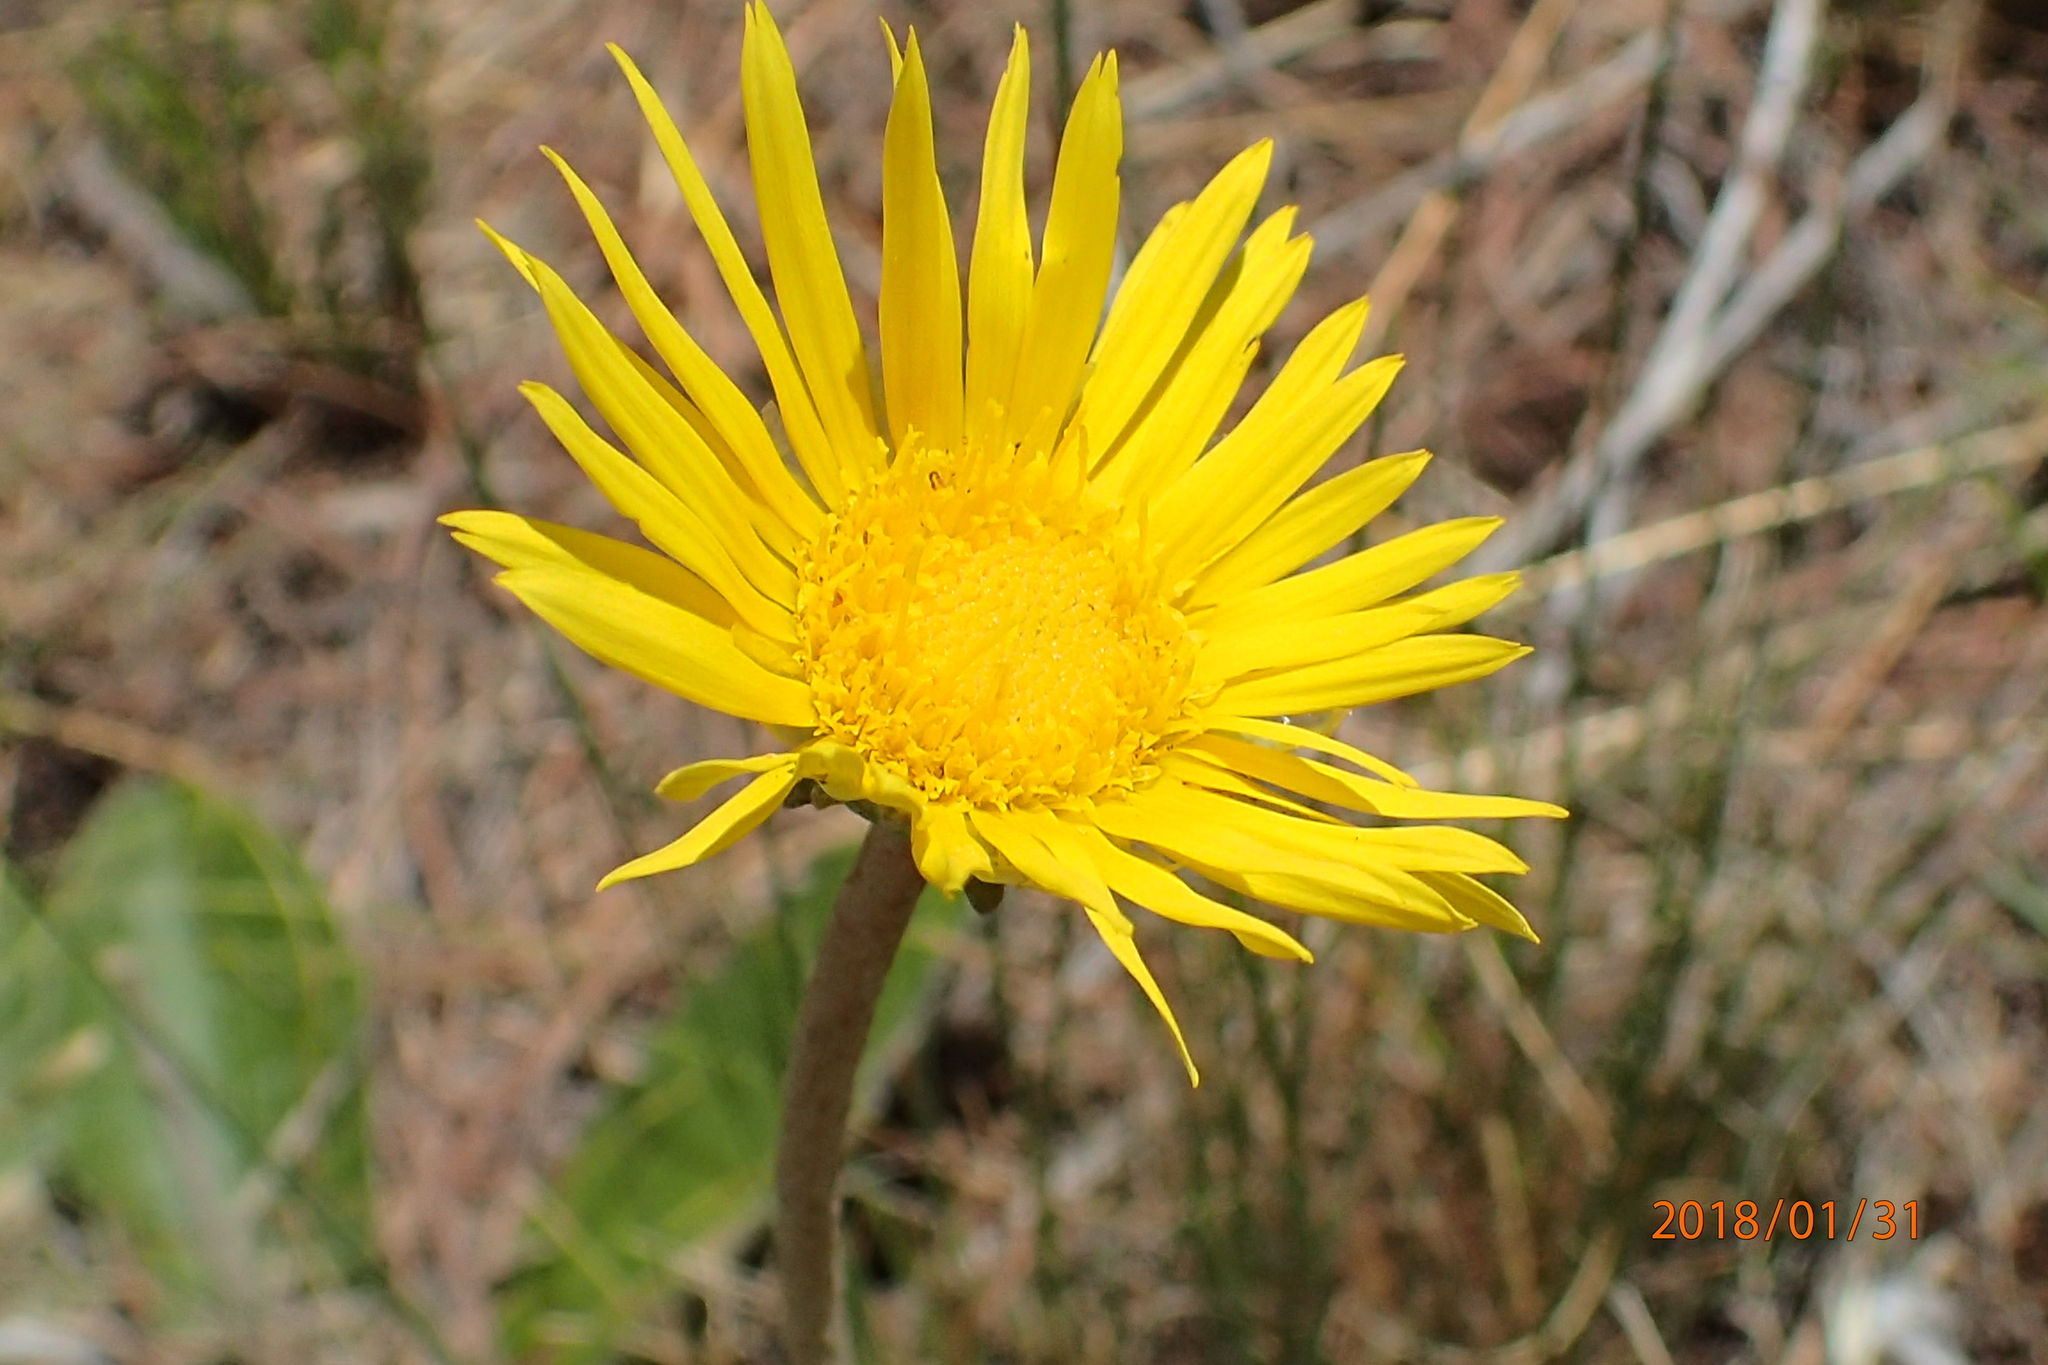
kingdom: Plantae
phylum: Tracheophyta
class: Magnoliopsida
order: Asterales
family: Asteraceae
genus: Haplocarpha
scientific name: Haplocarpha scaposa
